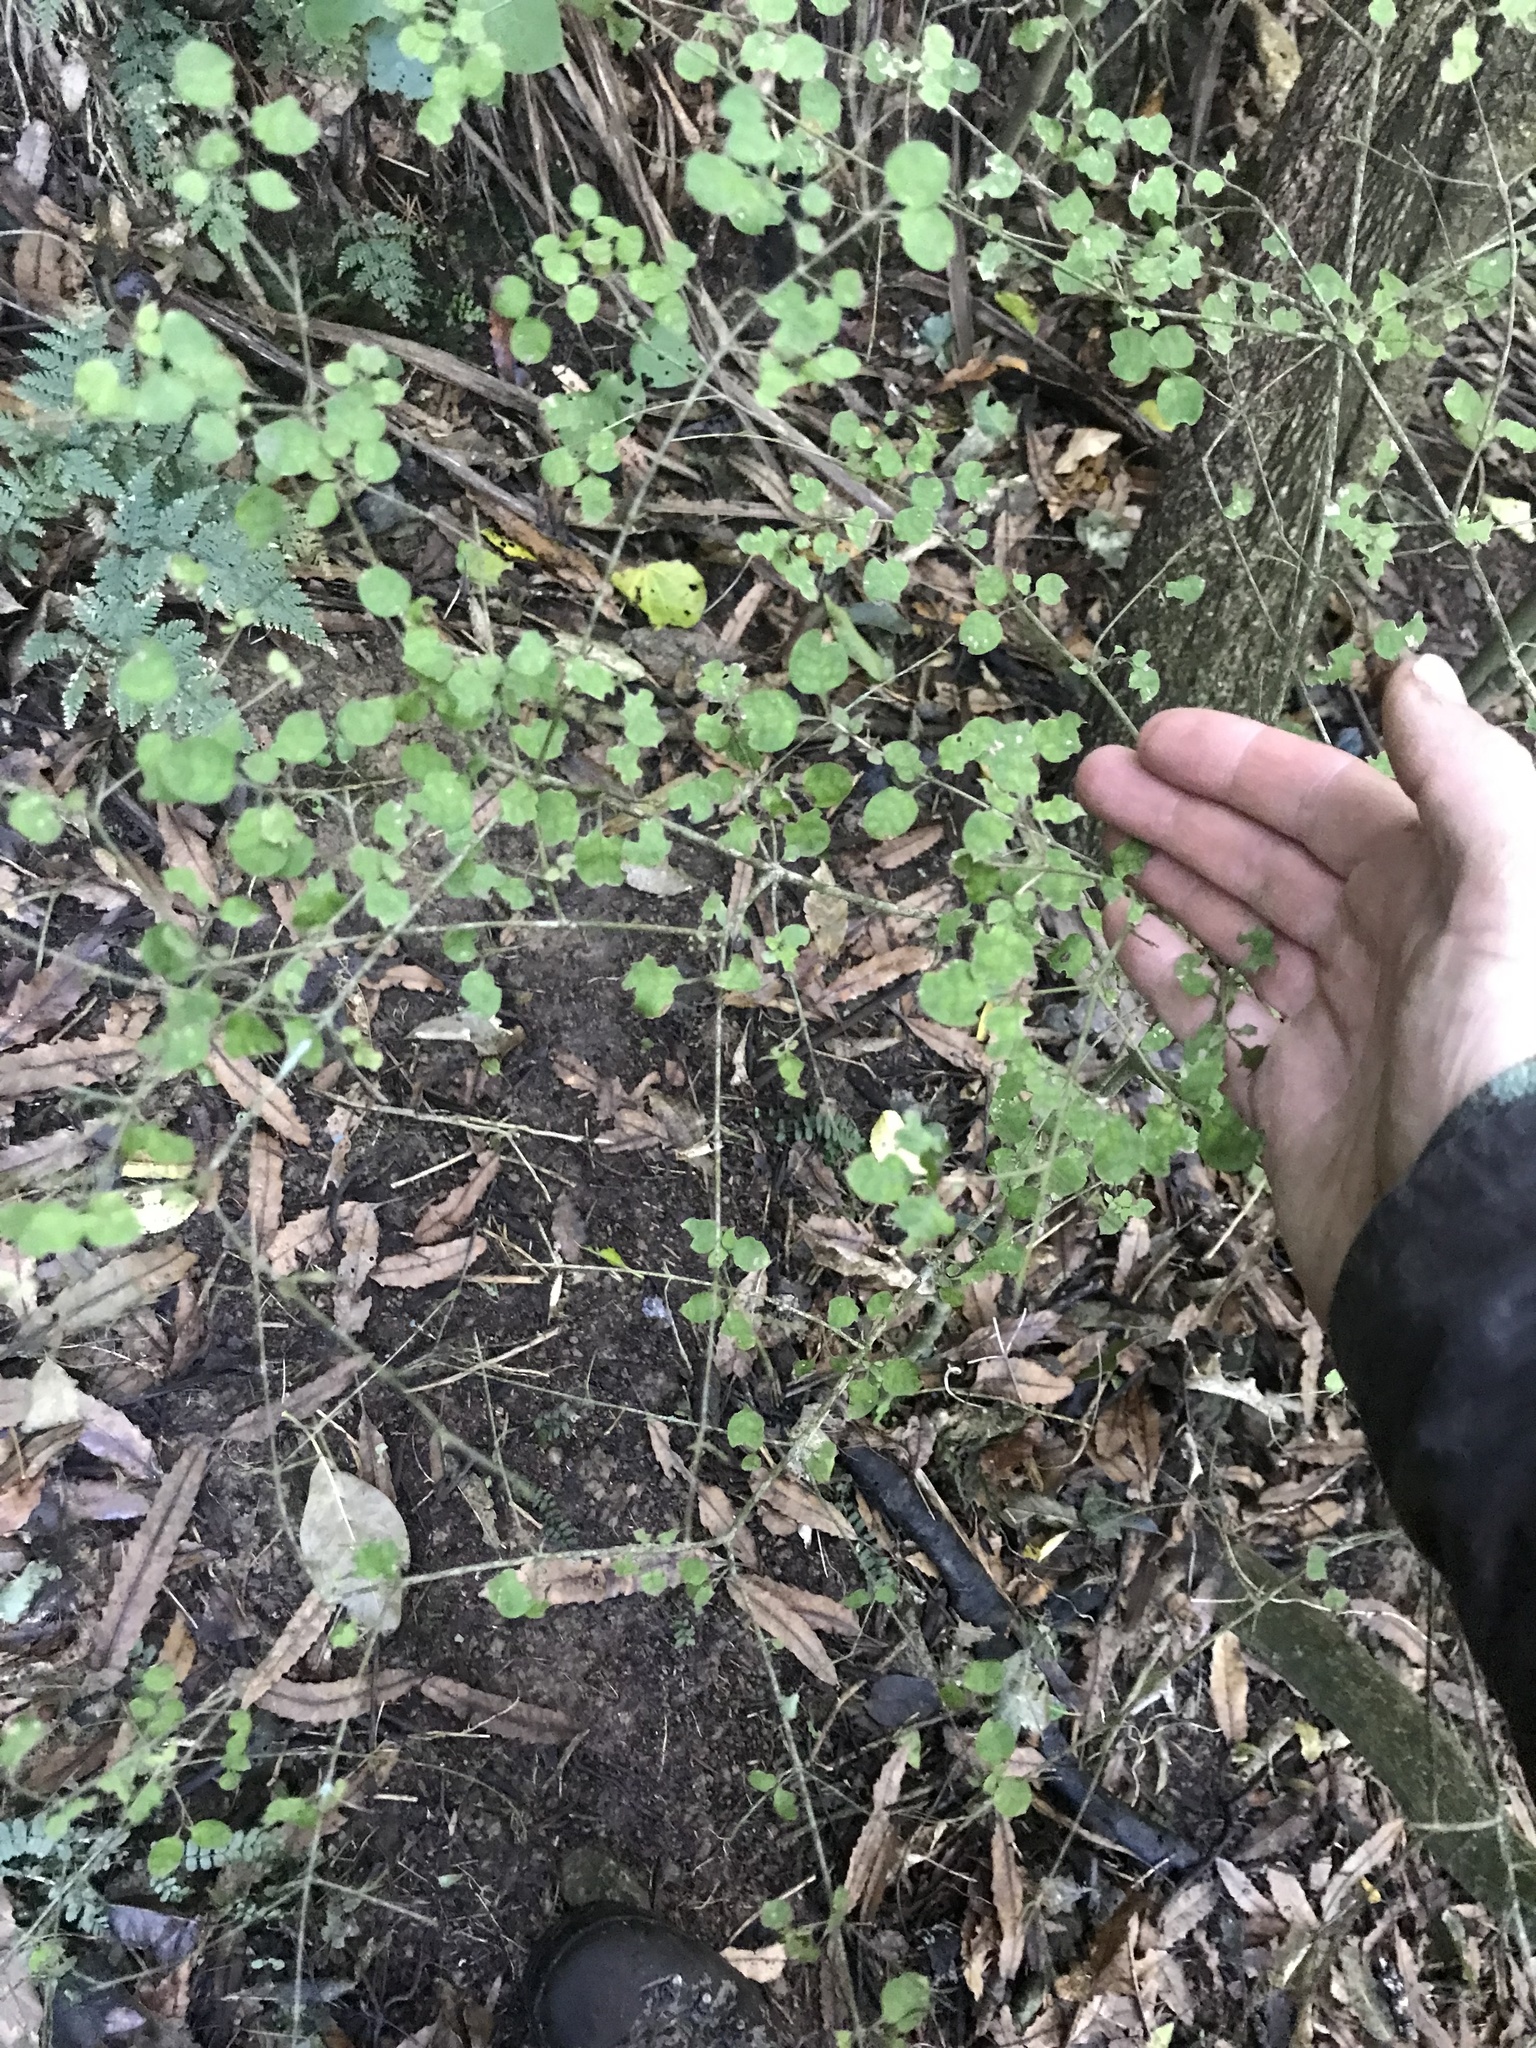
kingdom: Plantae
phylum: Tracheophyta
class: Magnoliopsida
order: Gentianales
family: Rubiaceae
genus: Coprosma
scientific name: Coprosma areolata
